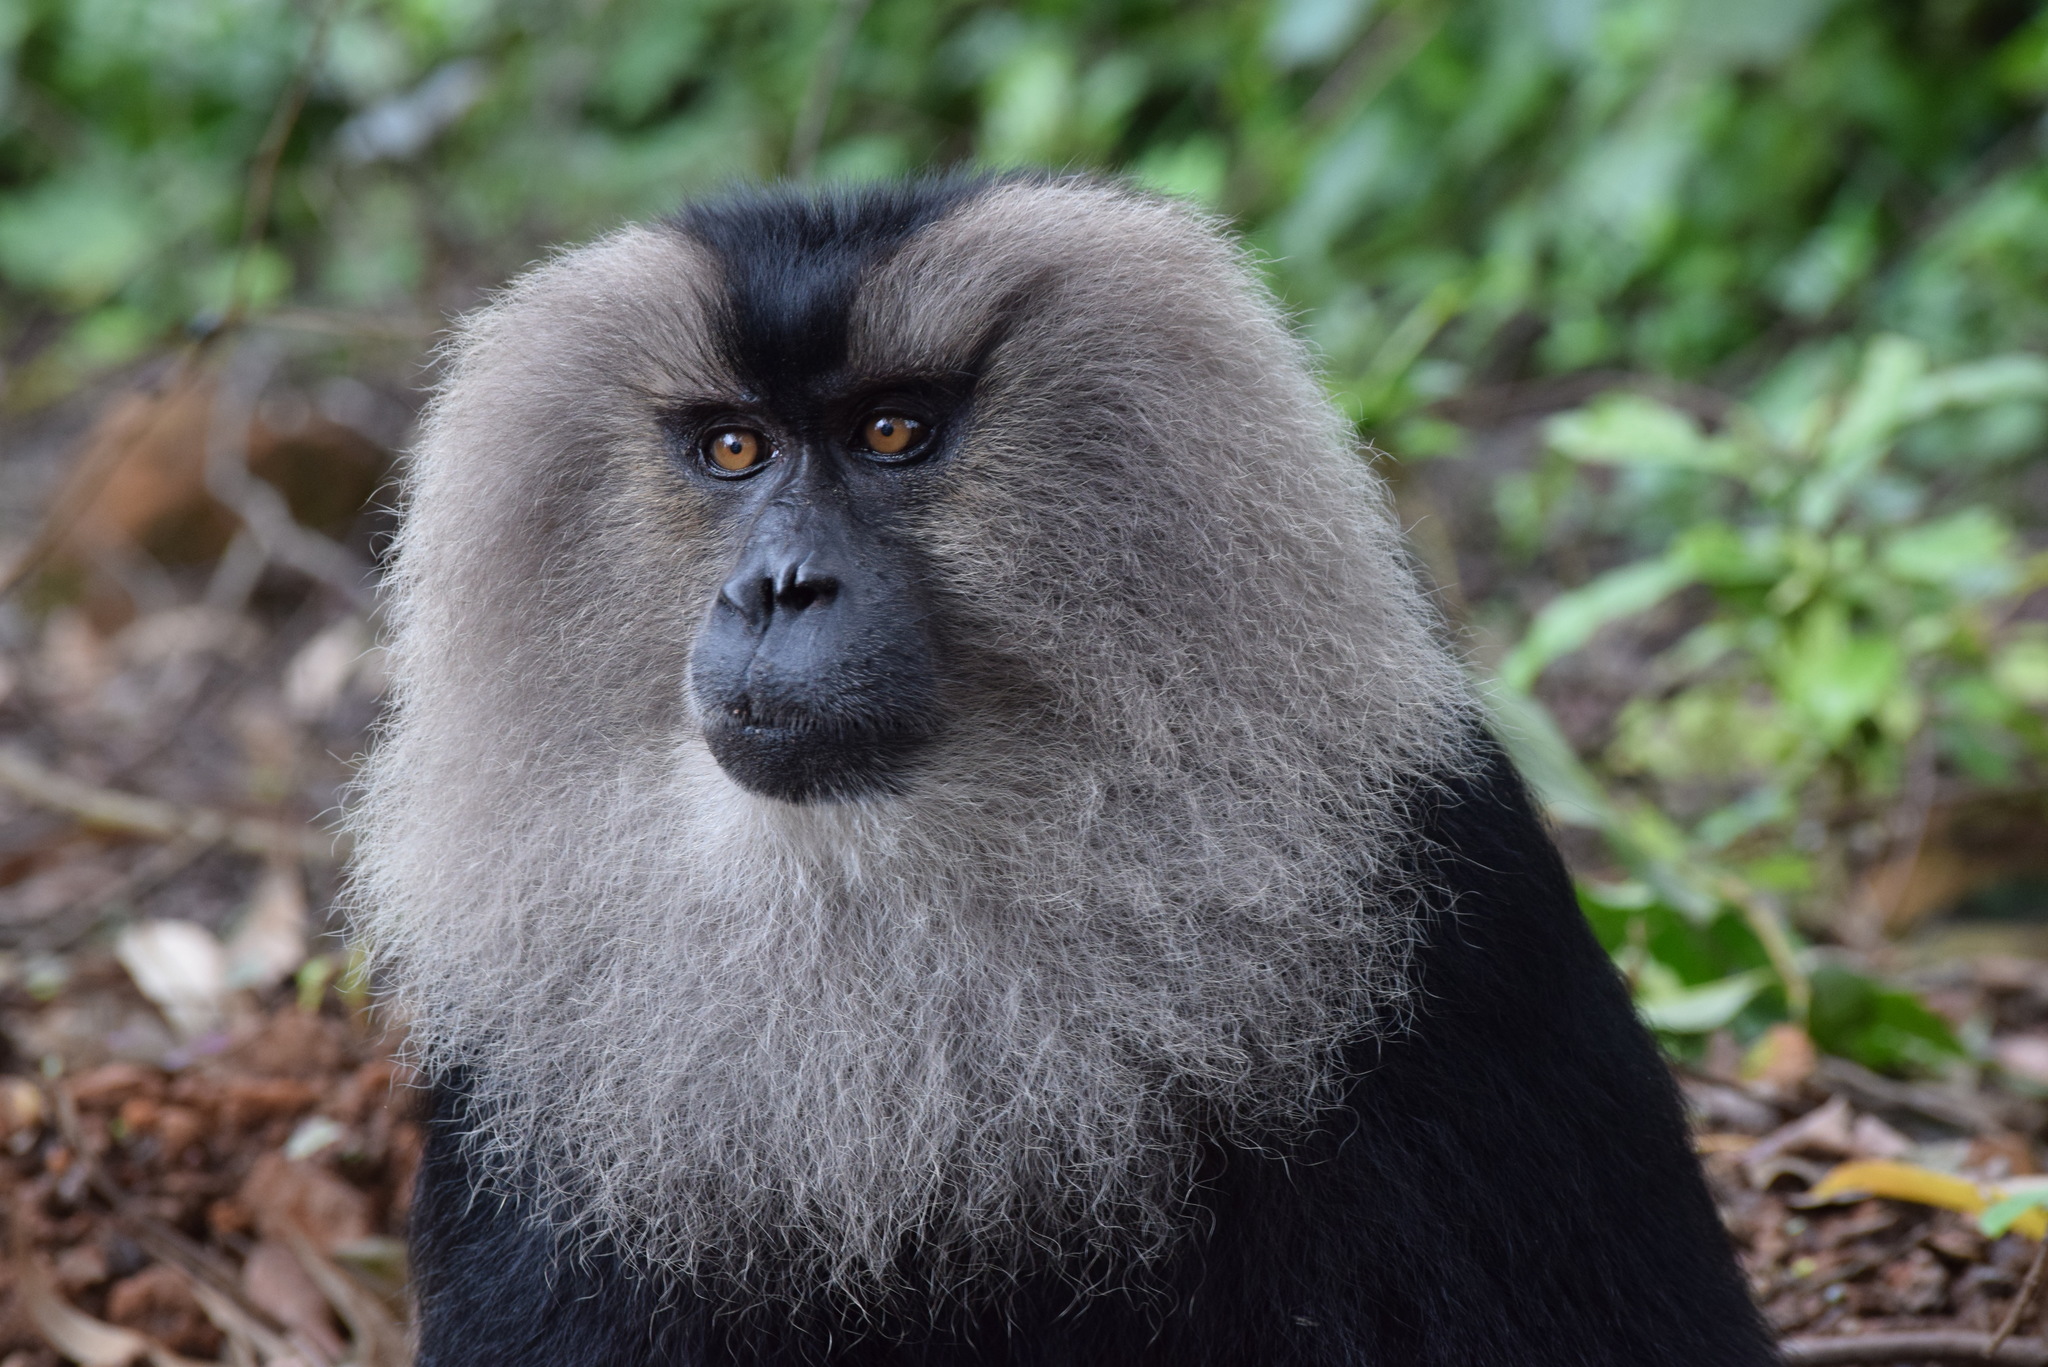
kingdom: Animalia
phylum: Chordata
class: Mammalia
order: Primates
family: Cercopithecidae
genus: Macaca
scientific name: Macaca silenus
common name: Lion-tailed macaque
